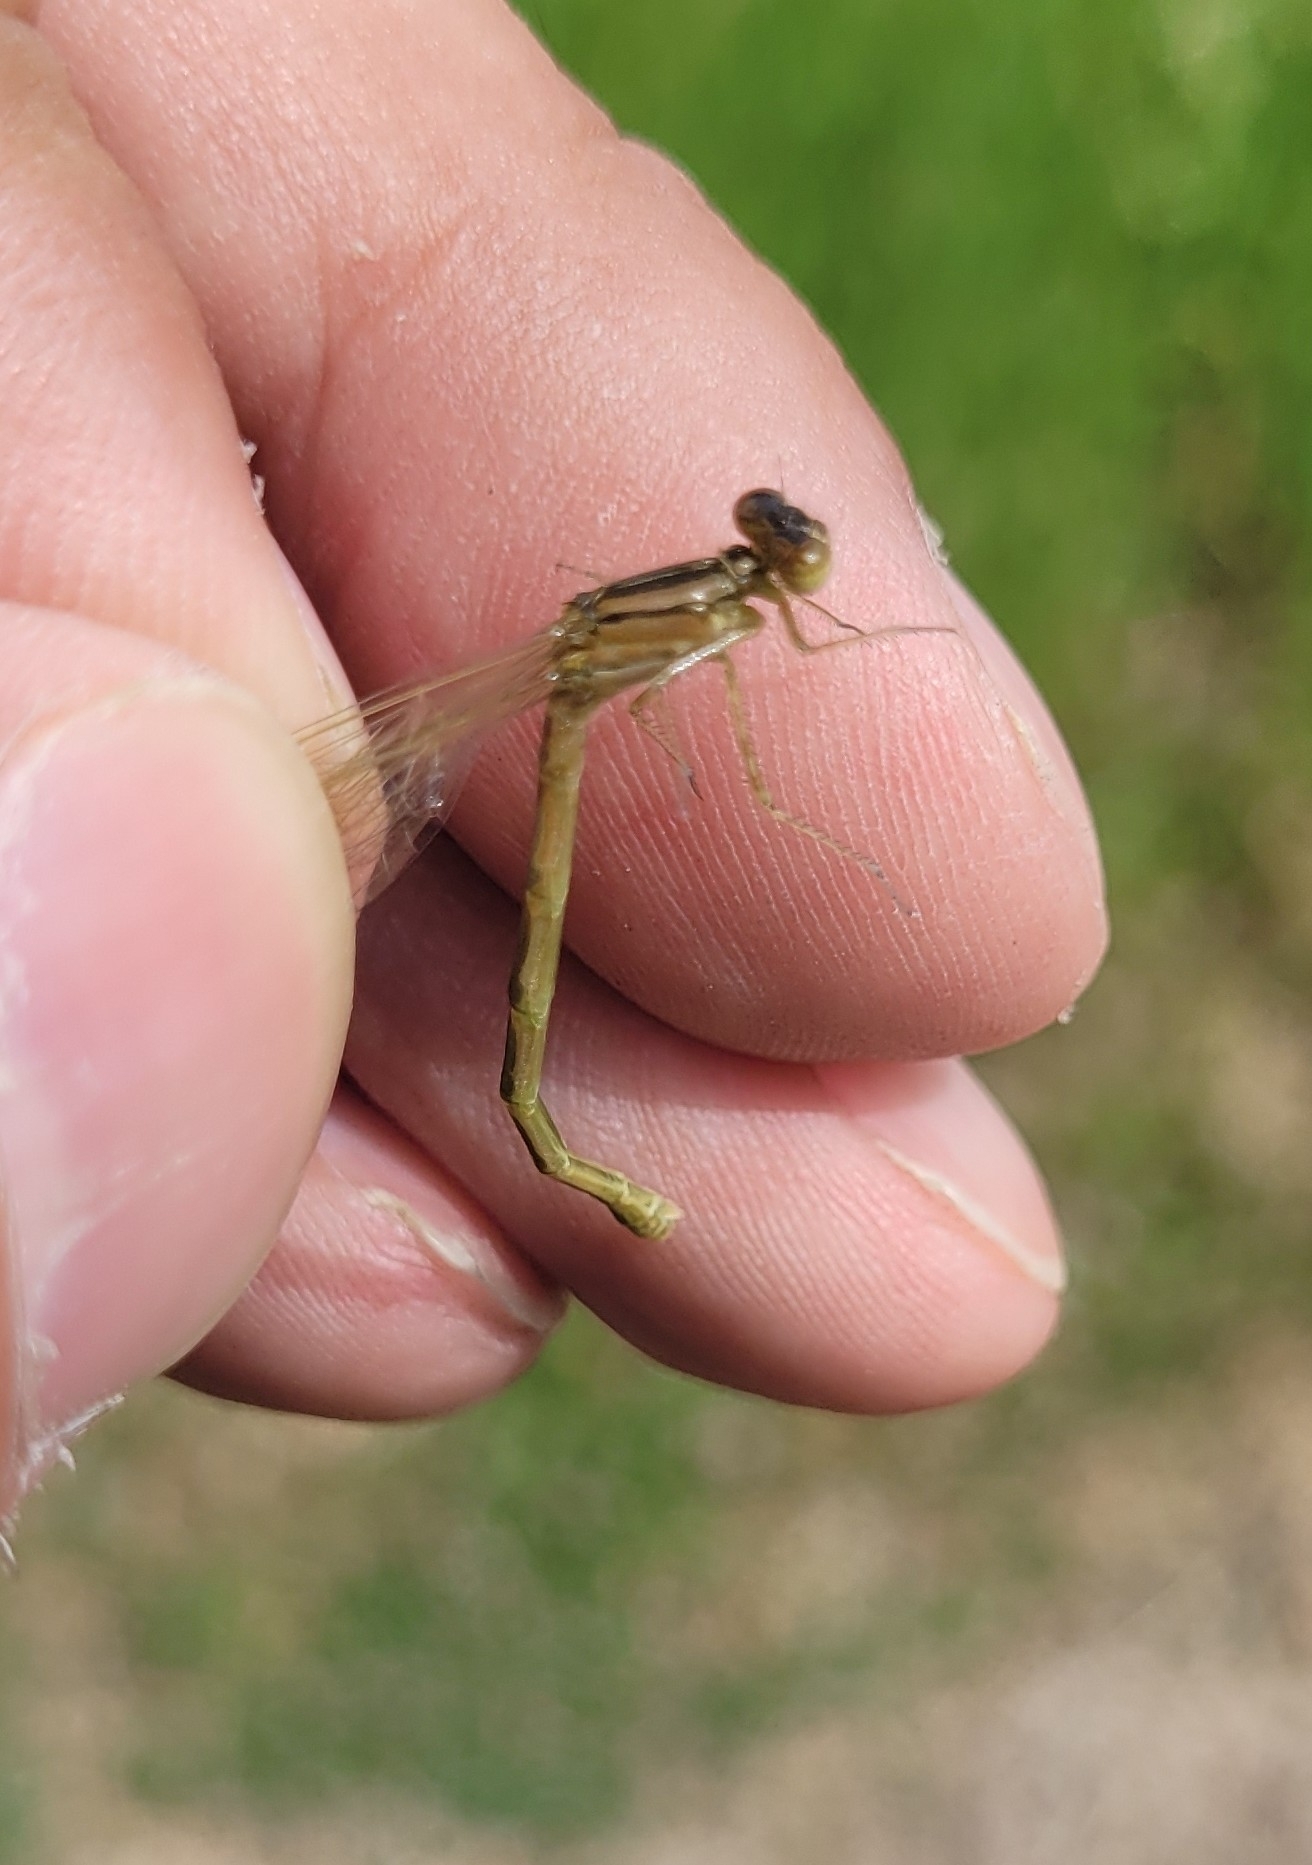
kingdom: Animalia
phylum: Arthropoda
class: Insecta
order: Odonata
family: Coenagrionidae
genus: Enallagma
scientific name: Enallagma cyathigerum
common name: Common blue damselfly
